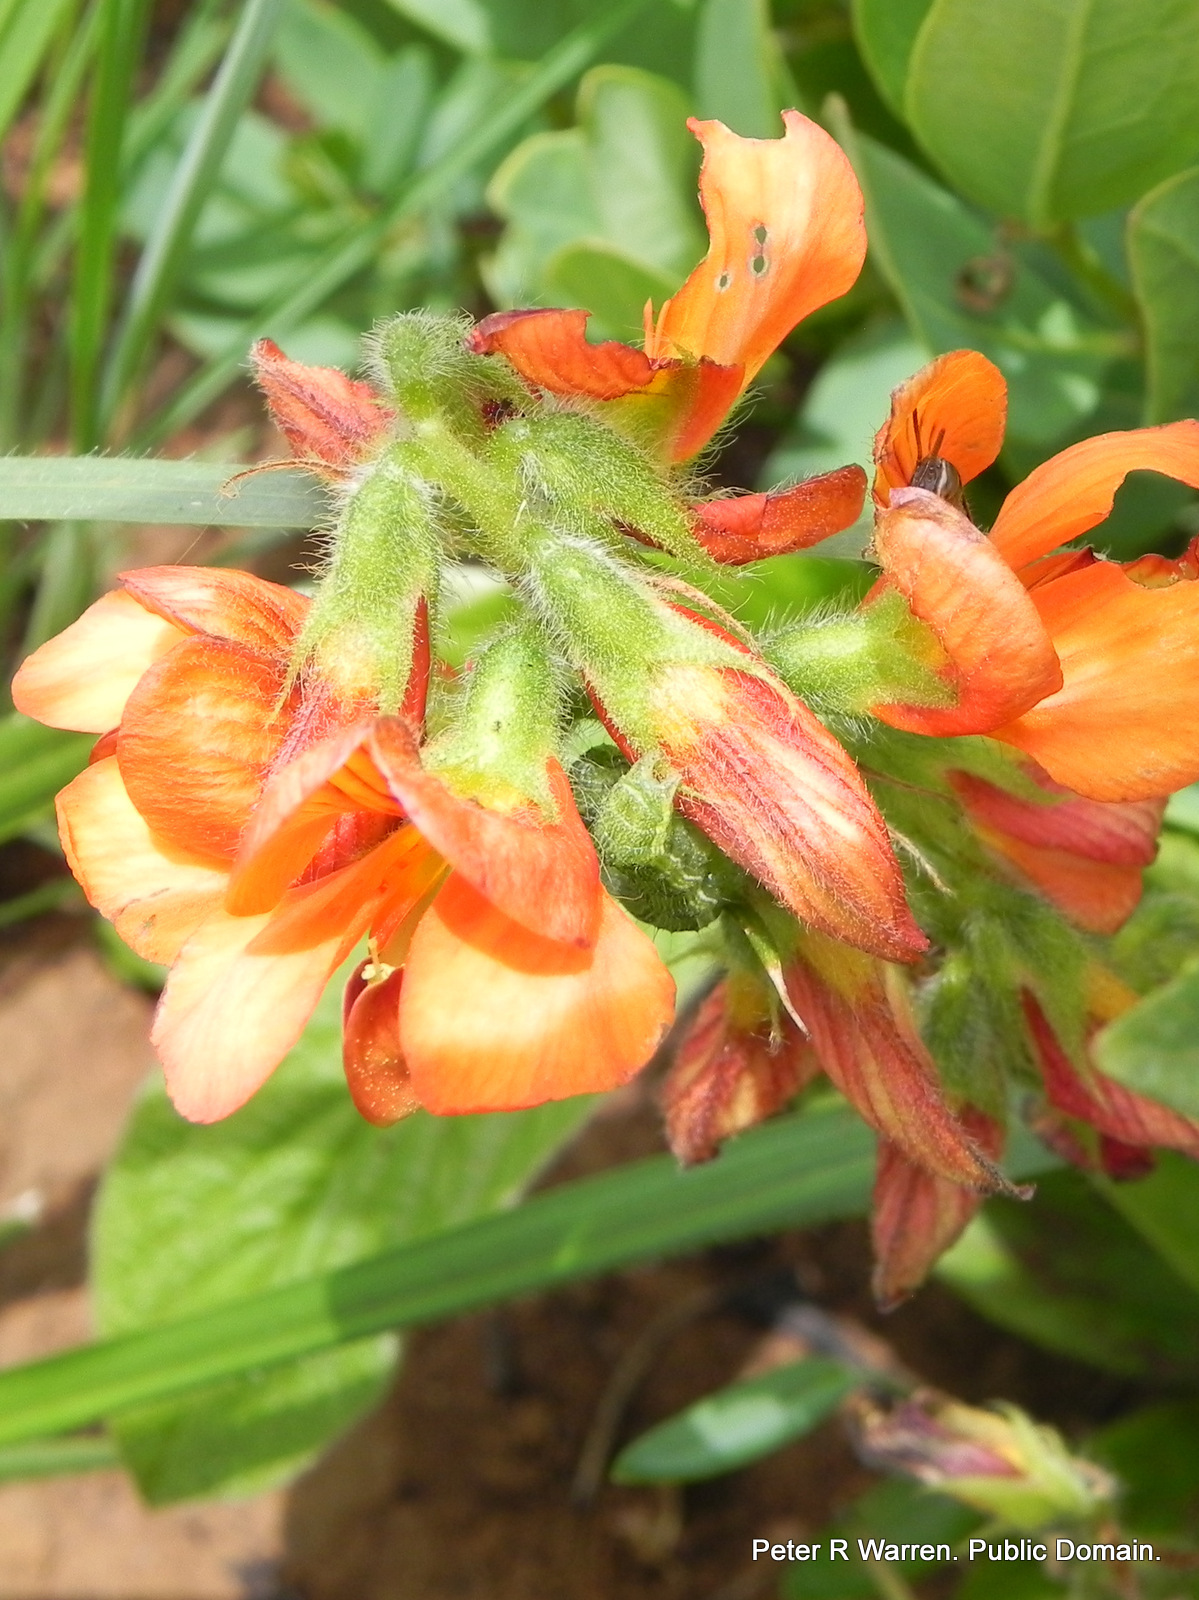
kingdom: Plantae
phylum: Tracheophyta
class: Magnoliopsida
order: Fabales
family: Fabaceae
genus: Eriosema
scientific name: Eriosema distinctum
